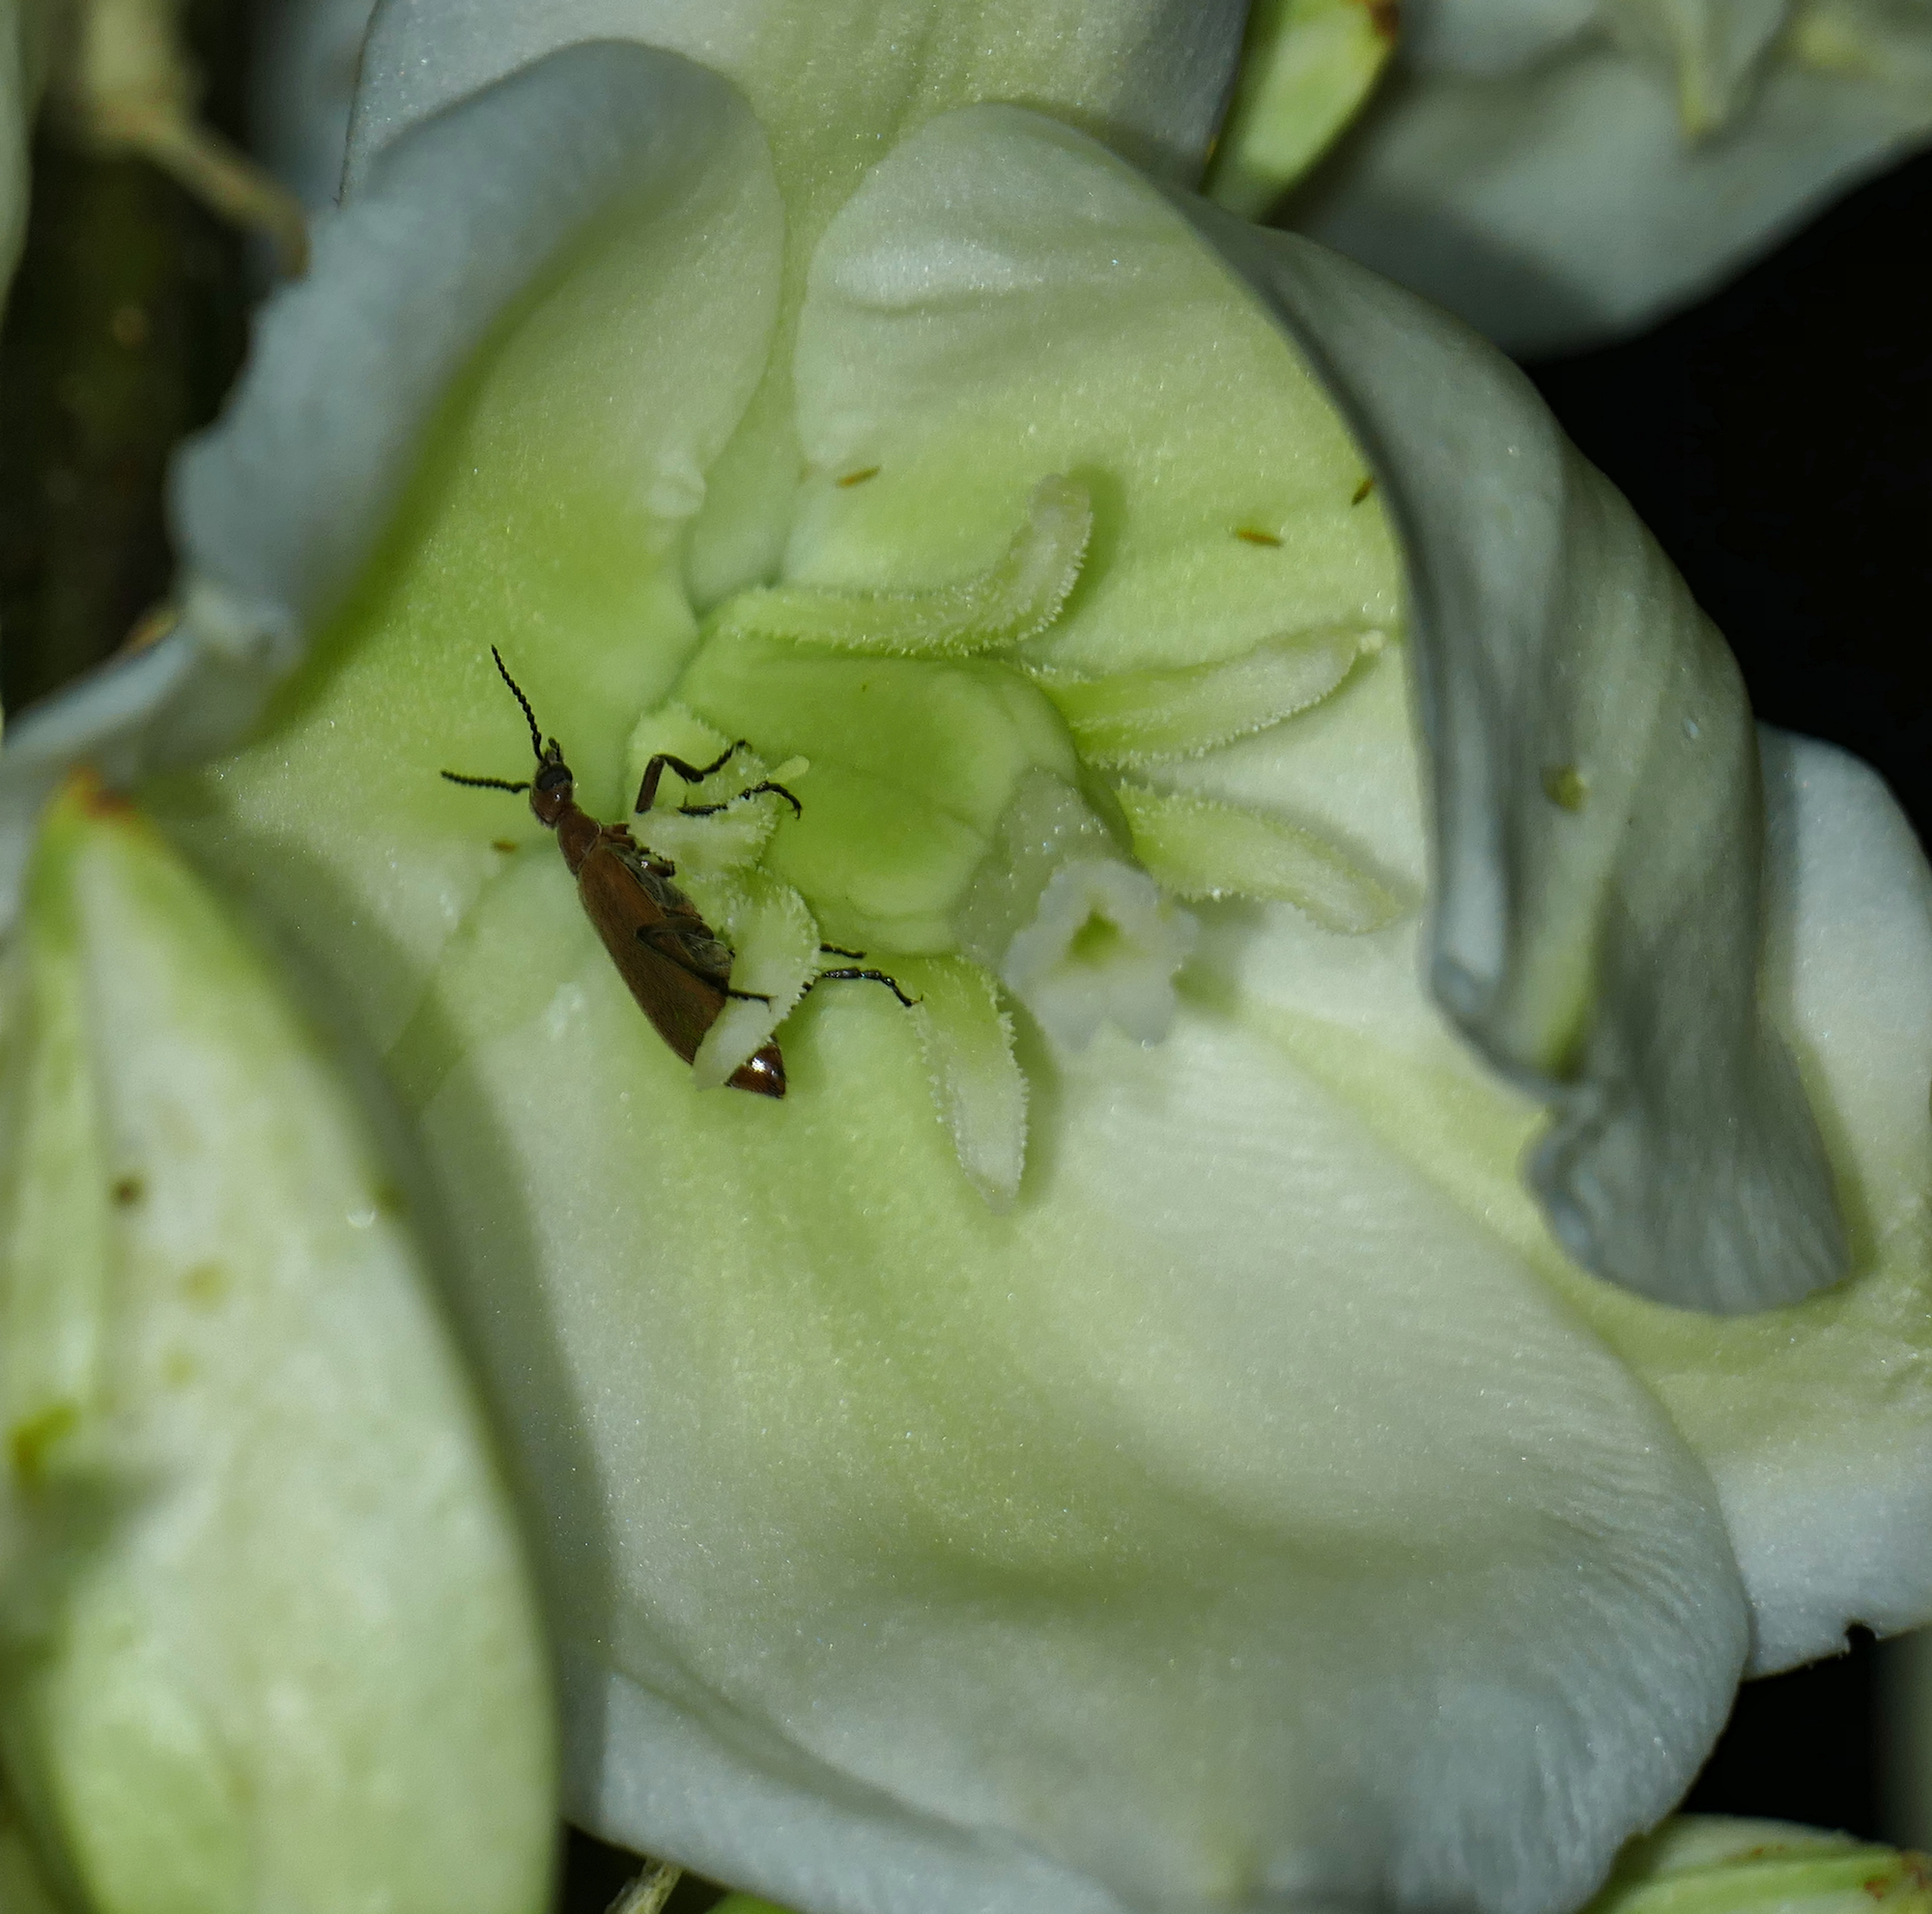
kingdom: Plantae
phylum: Tracheophyta
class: Liliopsida
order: Asparagales
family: Asparagaceae
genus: Yucca
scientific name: Yucca elata
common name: Palmella
